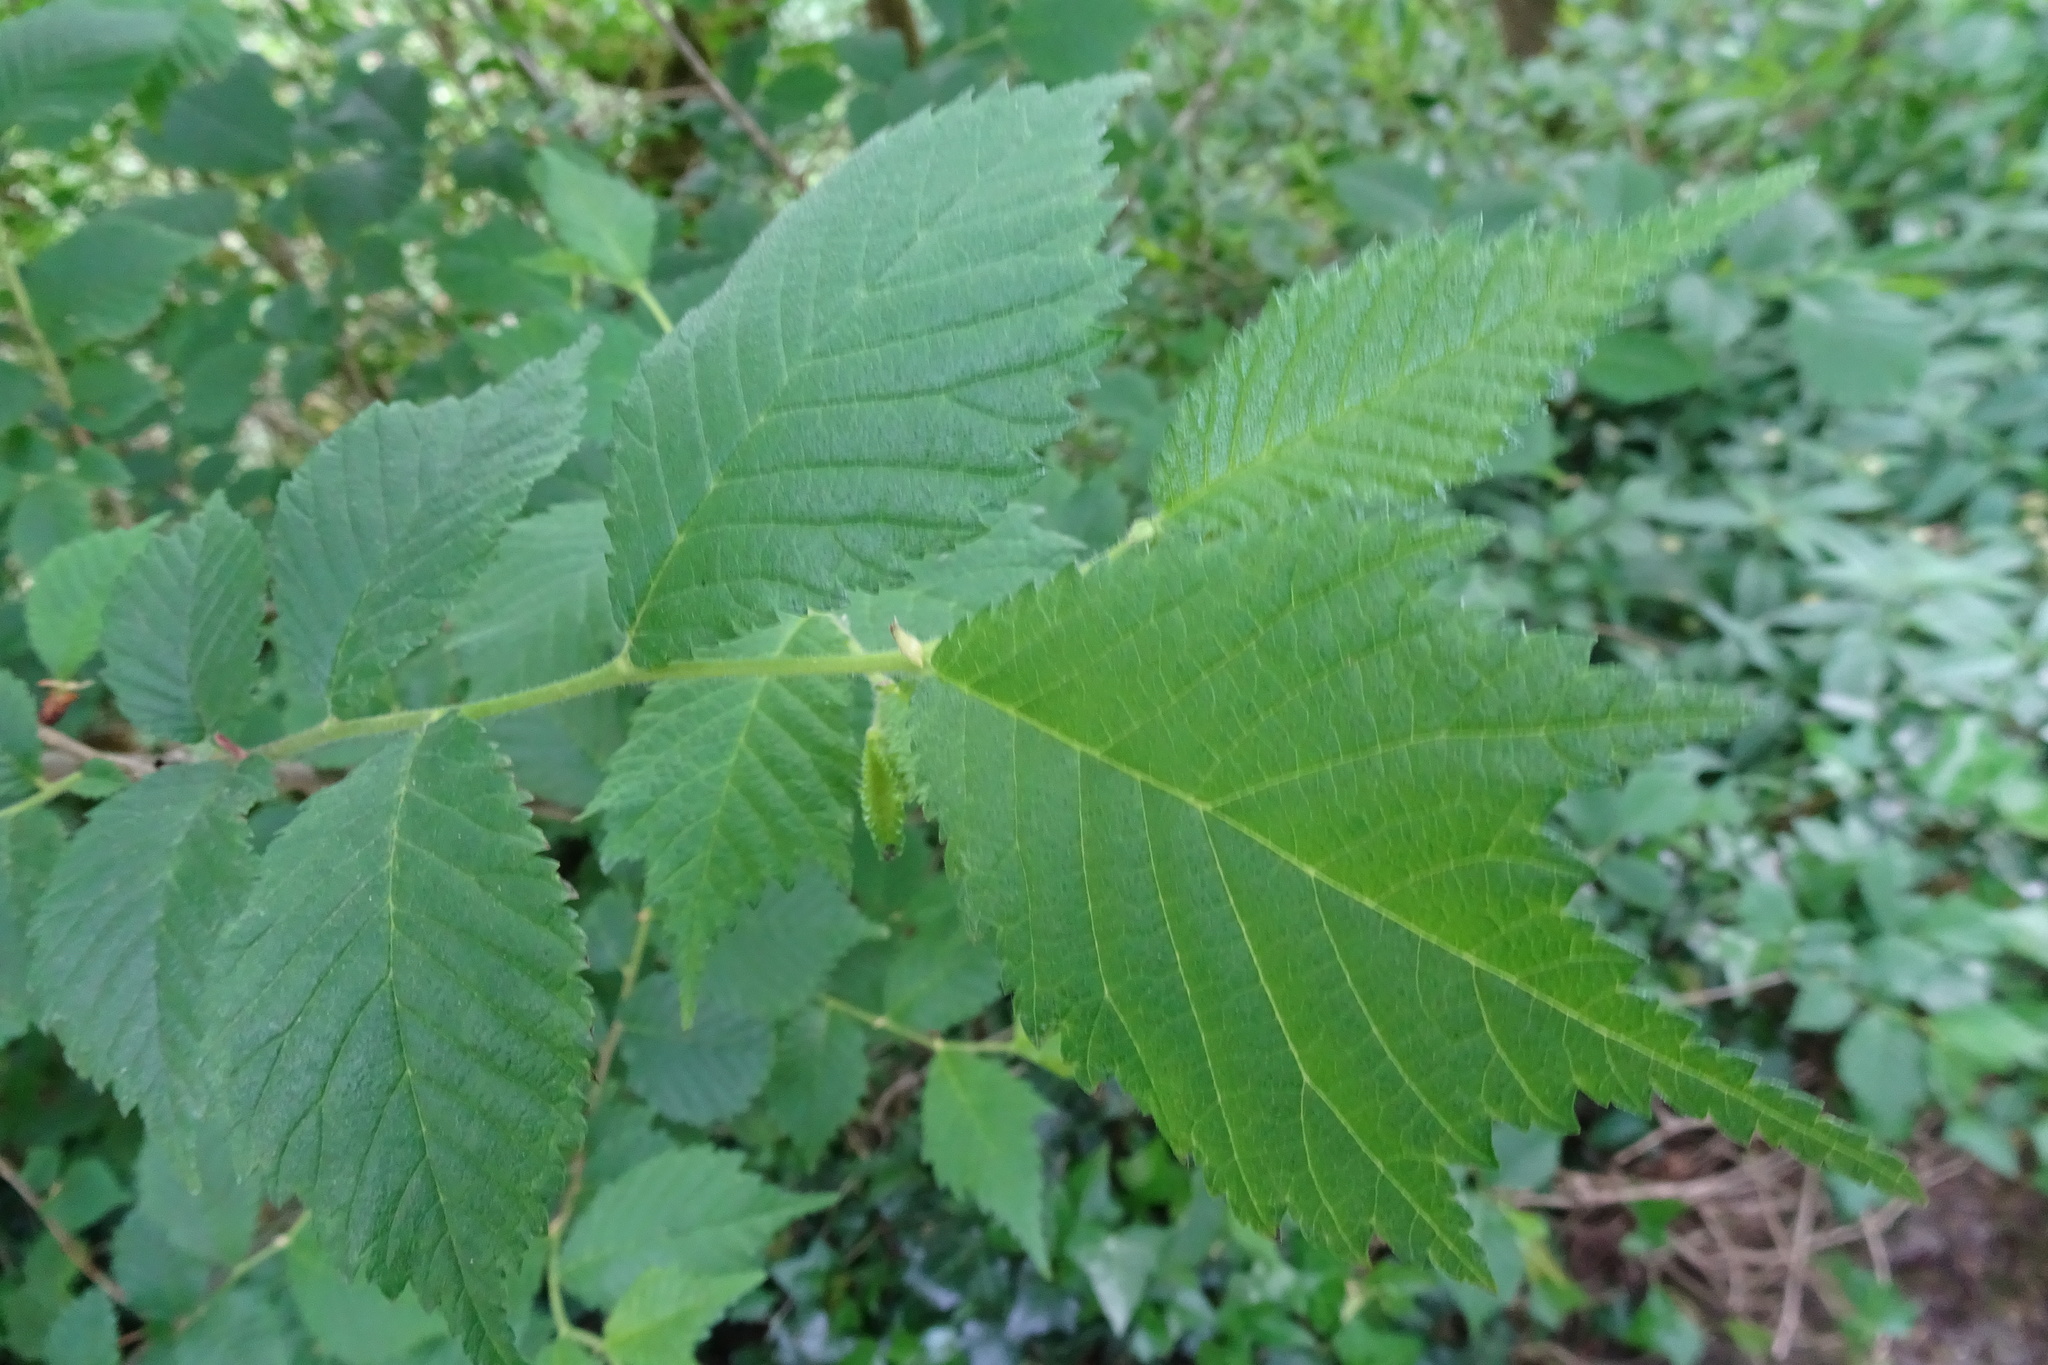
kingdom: Plantae
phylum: Tracheophyta
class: Magnoliopsida
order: Rosales
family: Ulmaceae
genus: Ulmus
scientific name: Ulmus glabra
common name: Wych elm
